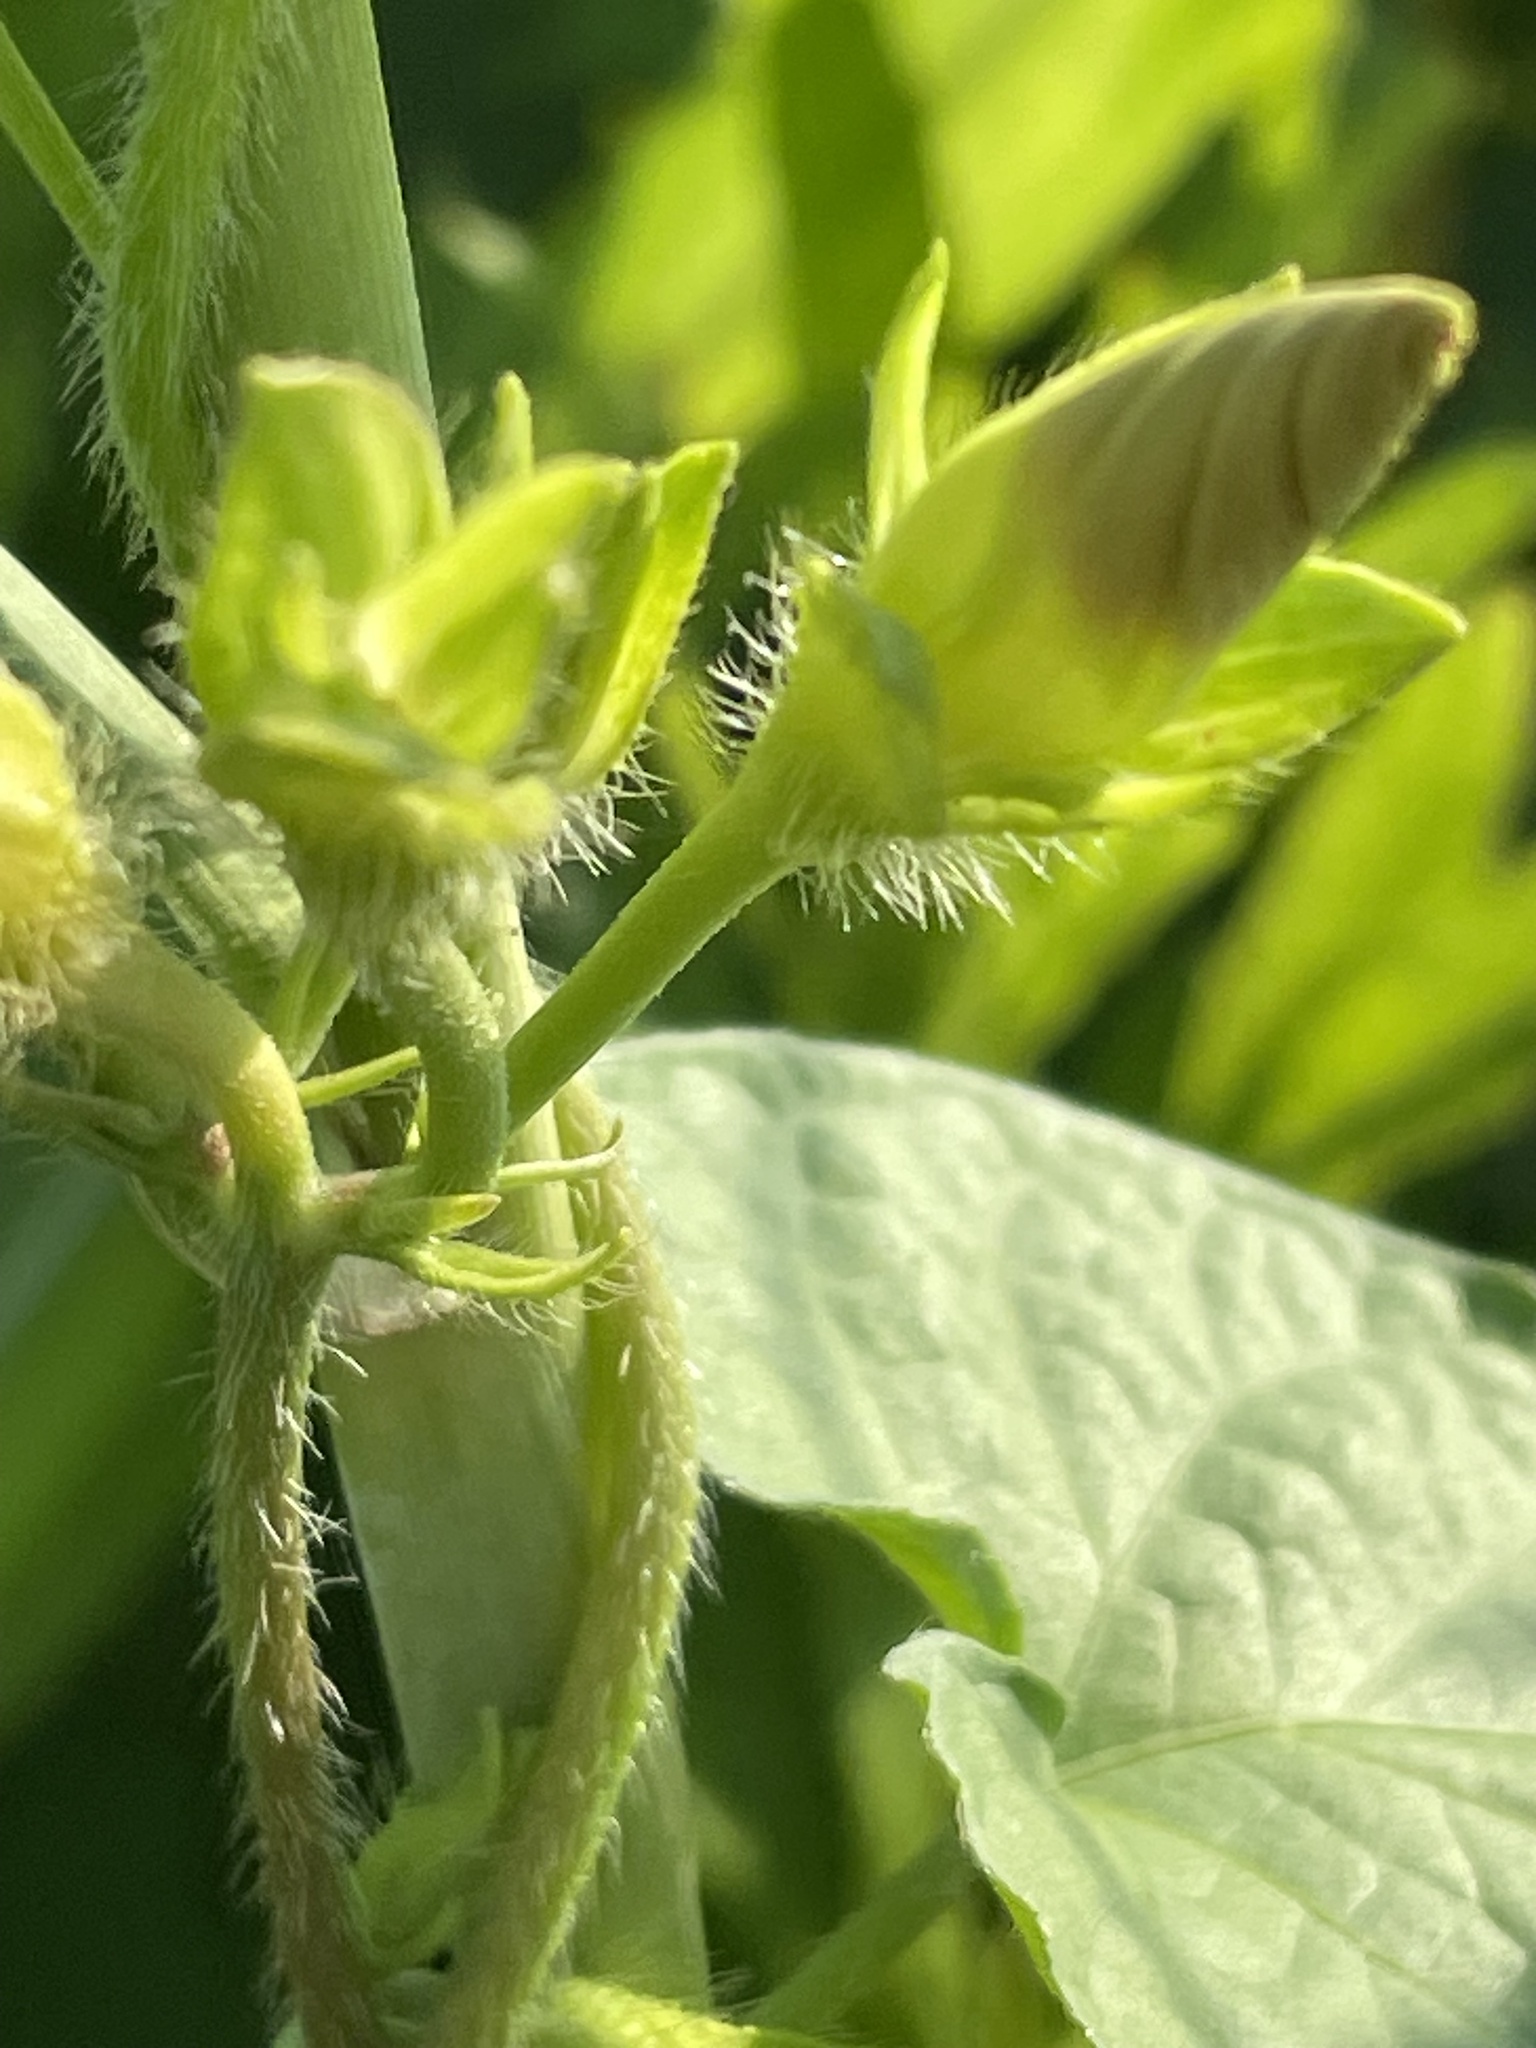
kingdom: Plantae
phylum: Tracheophyta
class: Magnoliopsida
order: Myrtales
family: Onagraceae
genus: Oenothera
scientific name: Oenothera biennis
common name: Common evening-primrose
